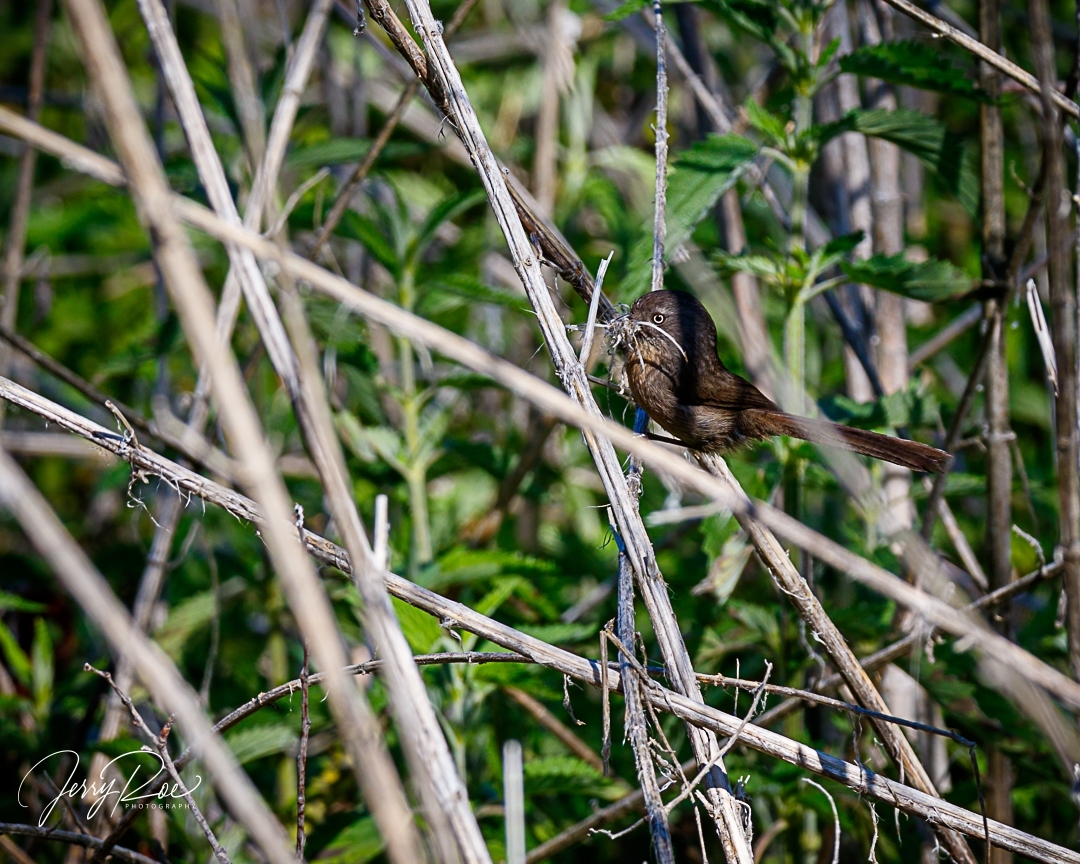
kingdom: Animalia
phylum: Chordata
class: Aves
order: Passeriformes
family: Sylviidae
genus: Chamaea
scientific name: Chamaea fasciata
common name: Wrentit
